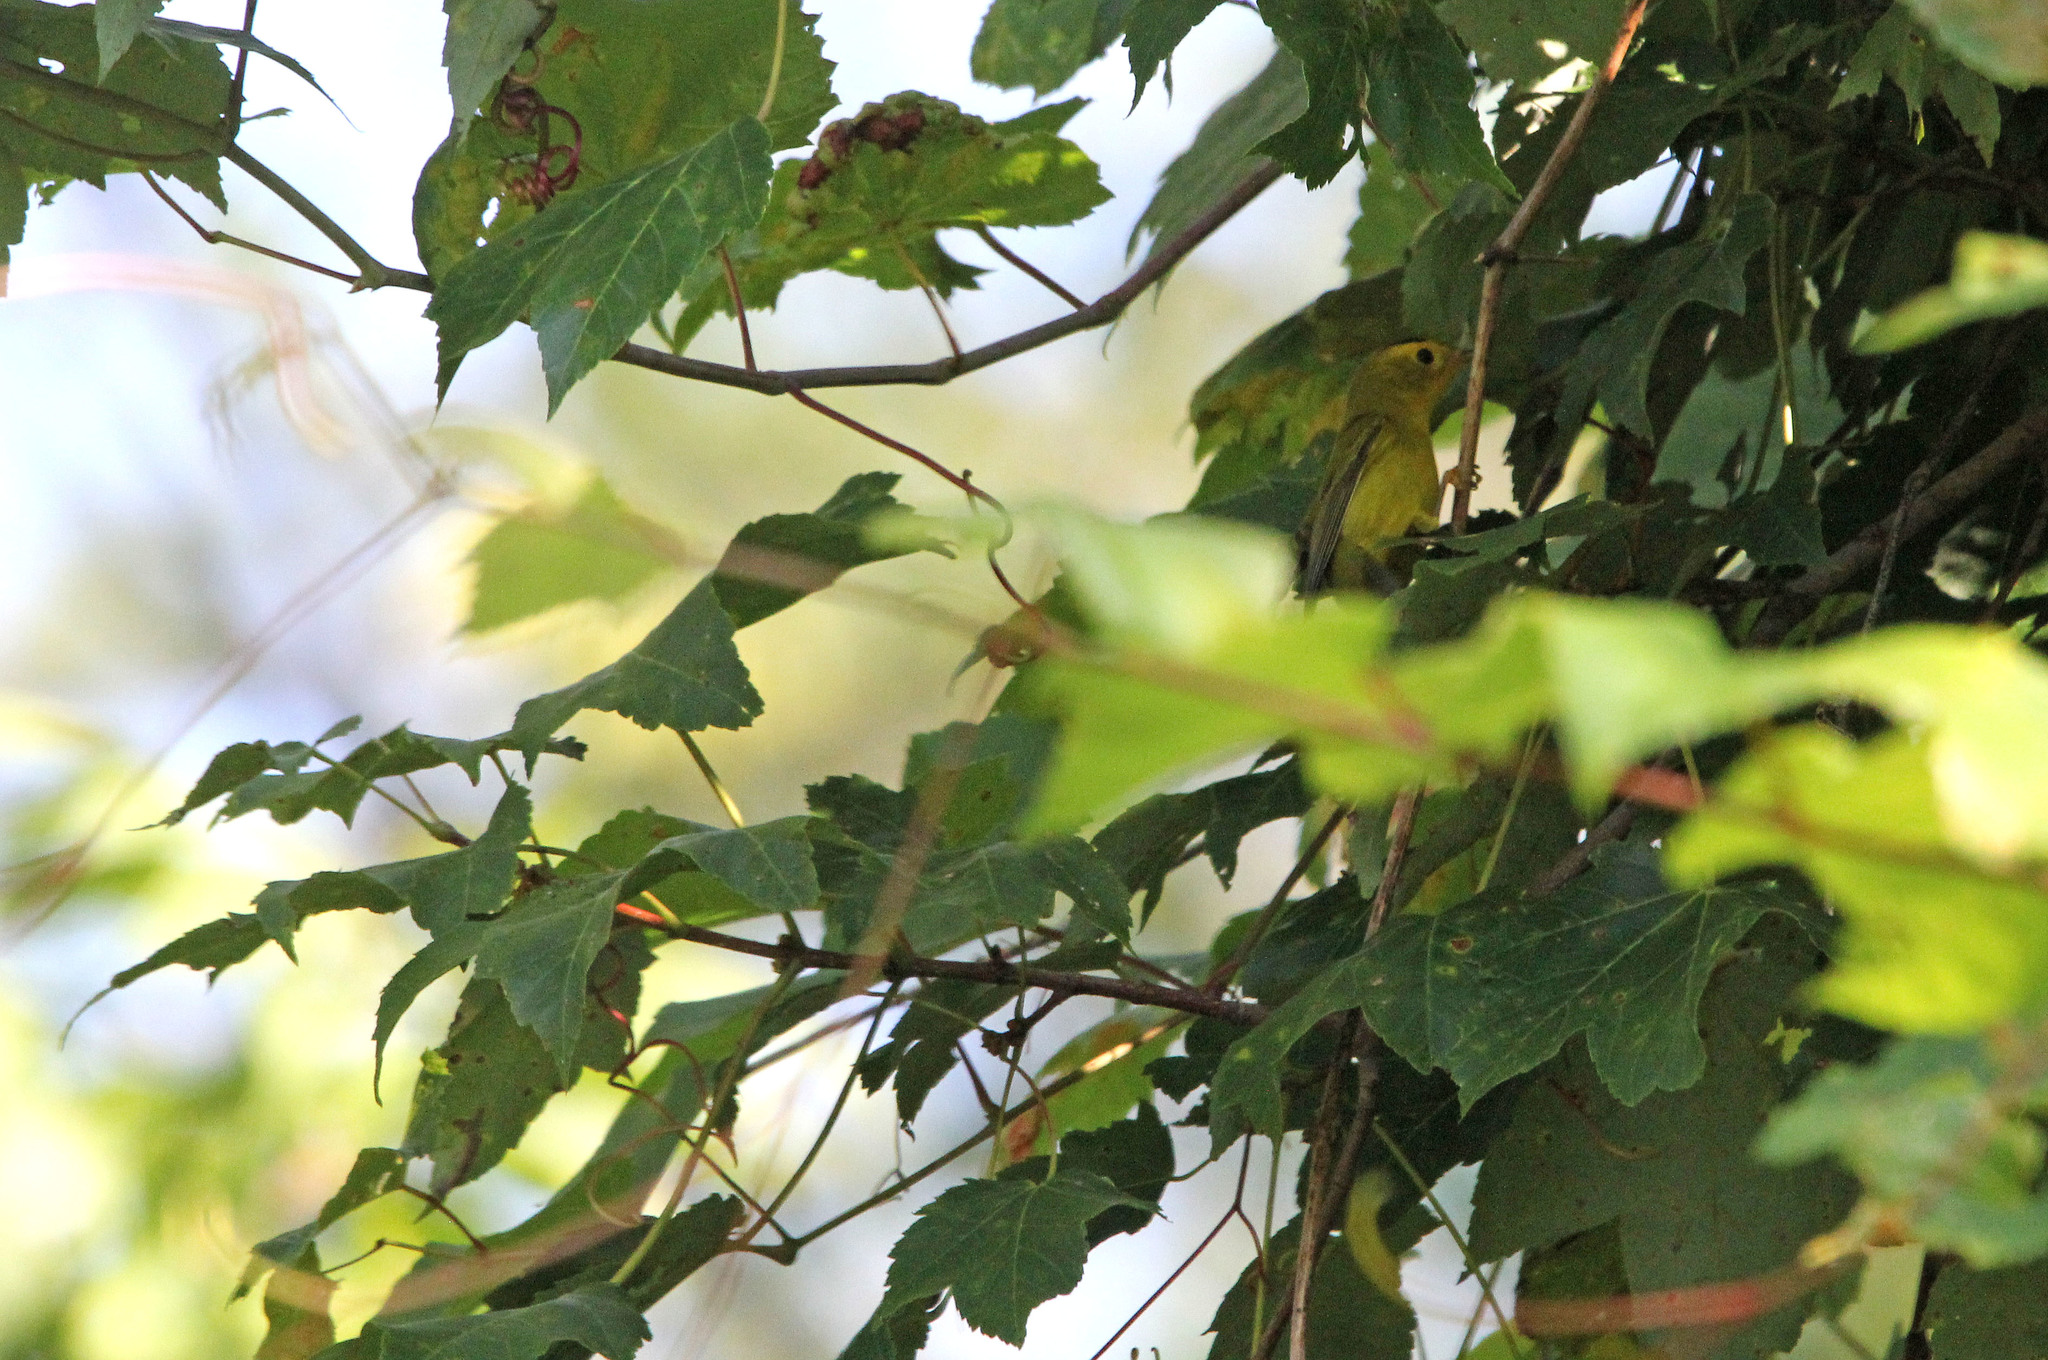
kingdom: Animalia
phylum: Chordata
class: Aves
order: Passeriformes
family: Parulidae
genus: Cardellina
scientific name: Cardellina pusilla
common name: Wilson's warbler
